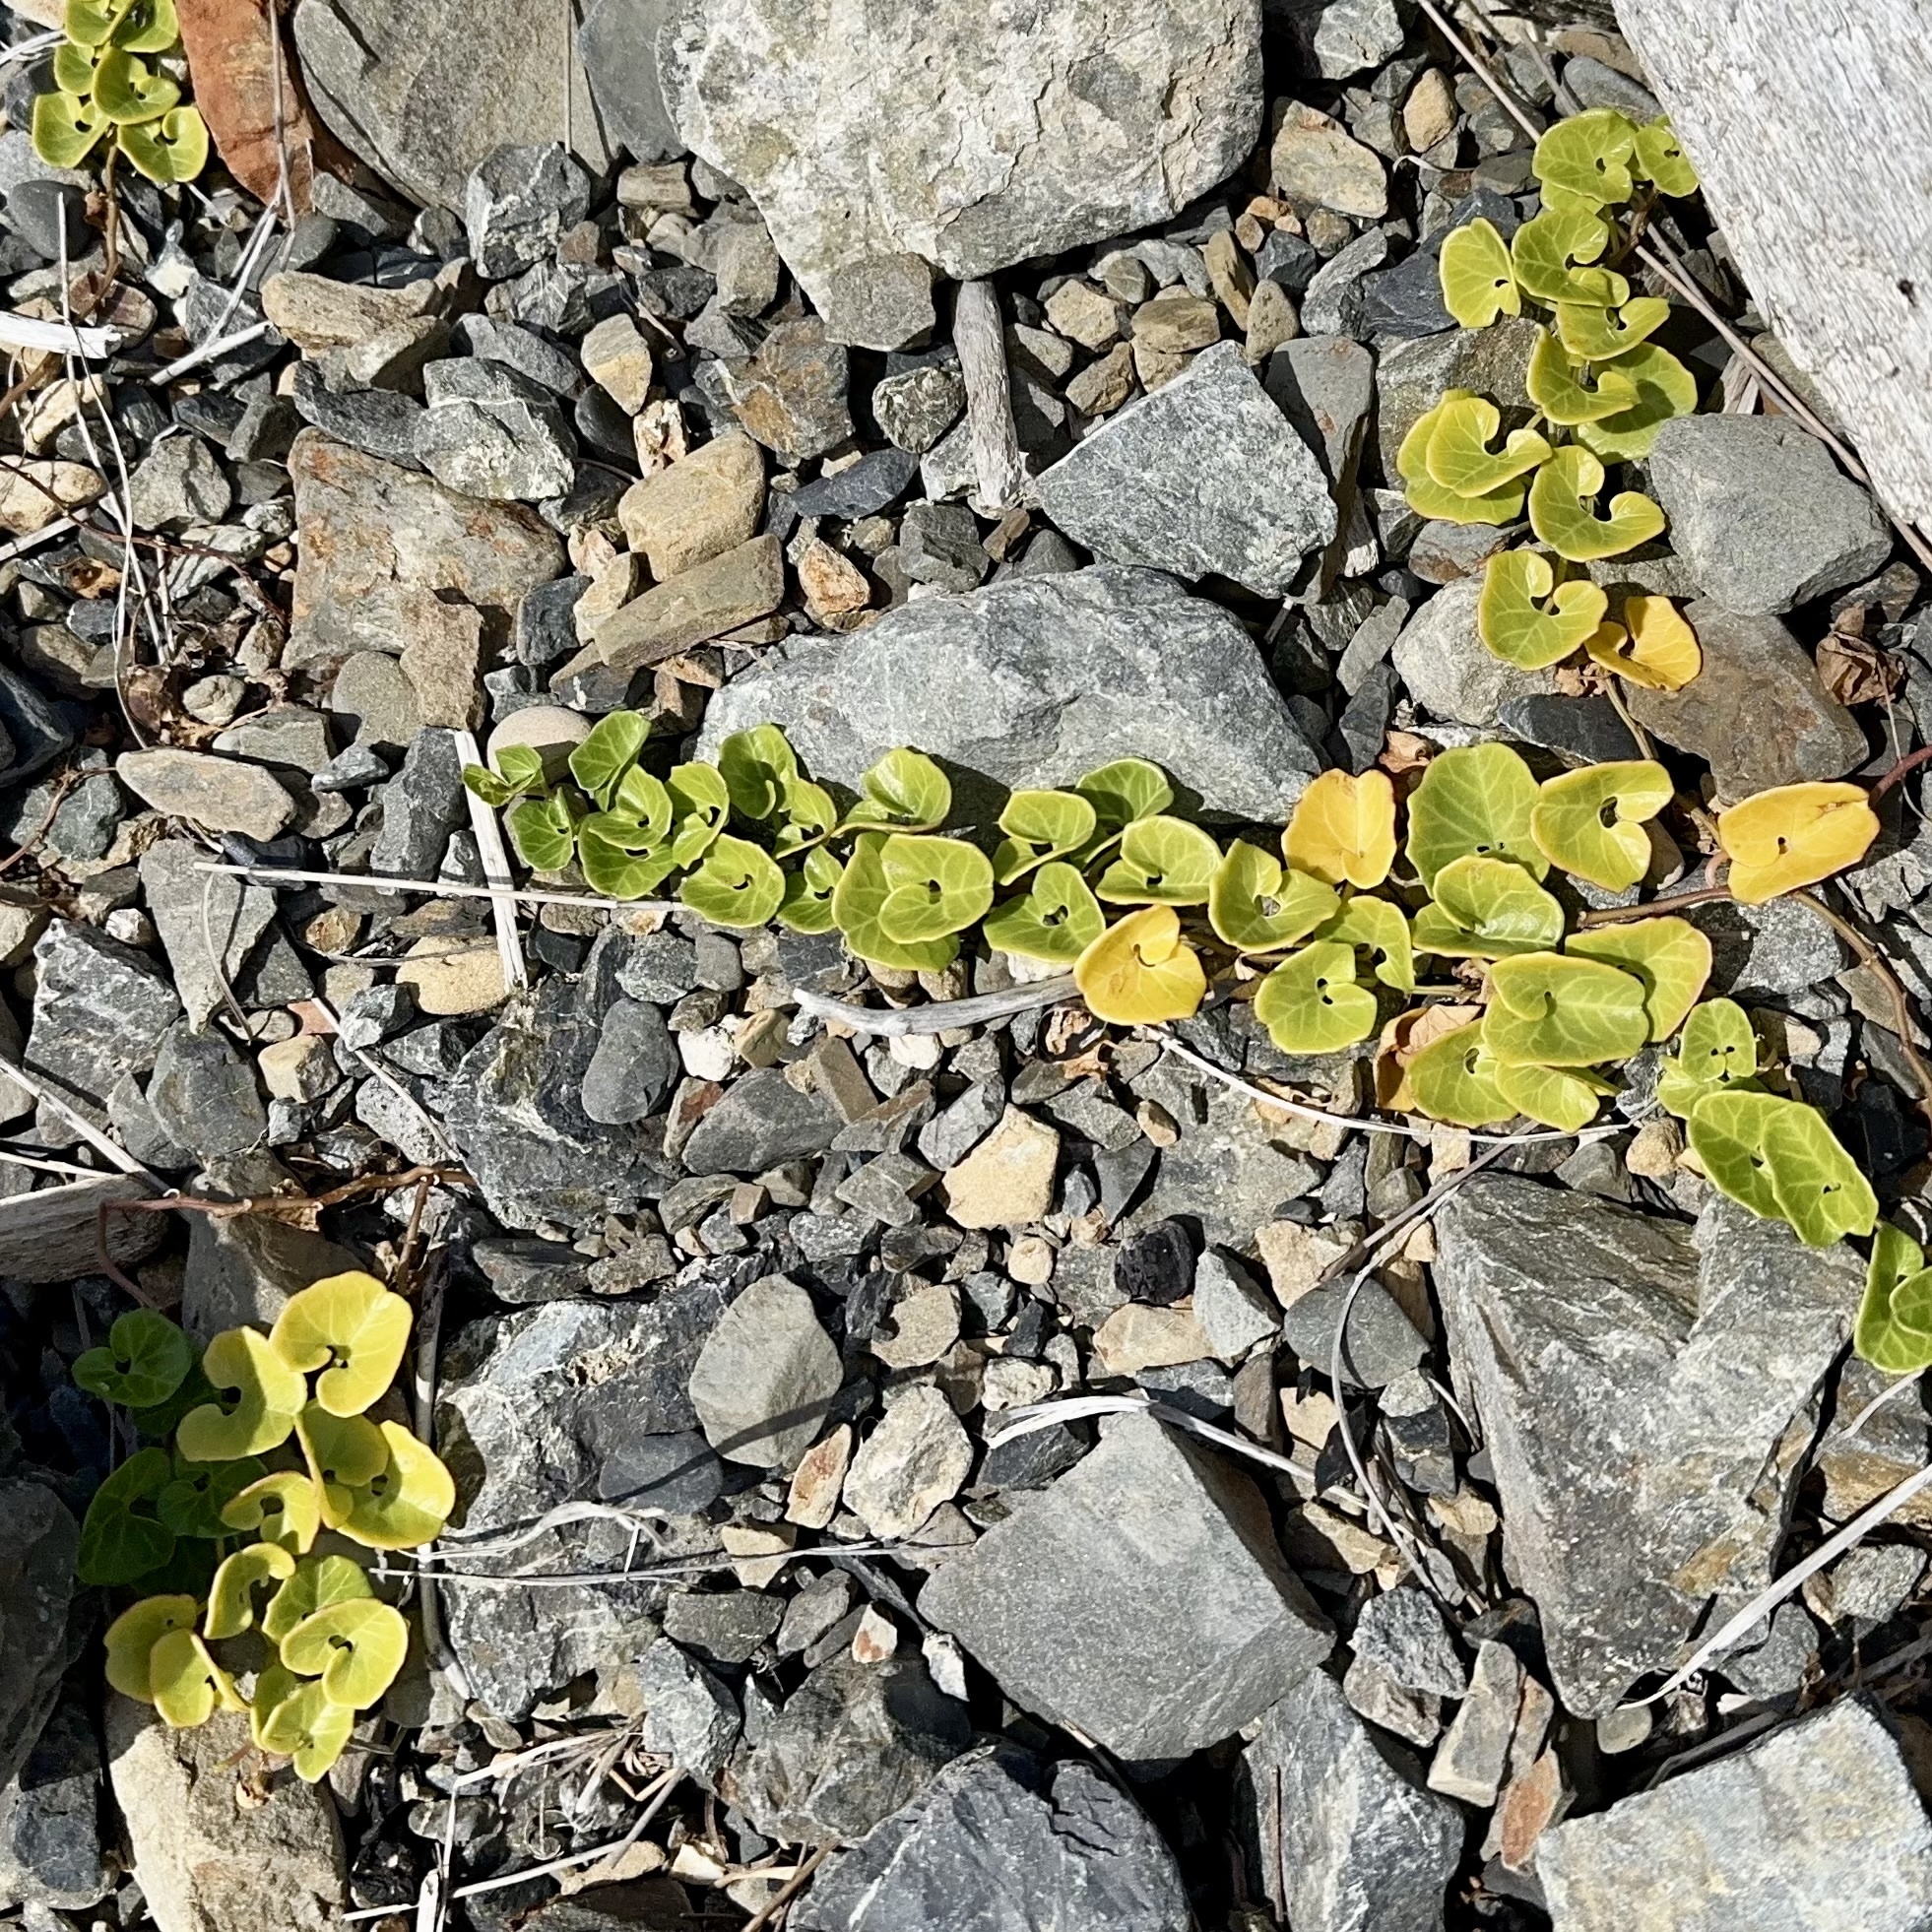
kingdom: Plantae
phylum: Tracheophyta
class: Magnoliopsida
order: Solanales
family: Convolvulaceae
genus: Calystegia
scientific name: Calystegia soldanella
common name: Sea bindweed
